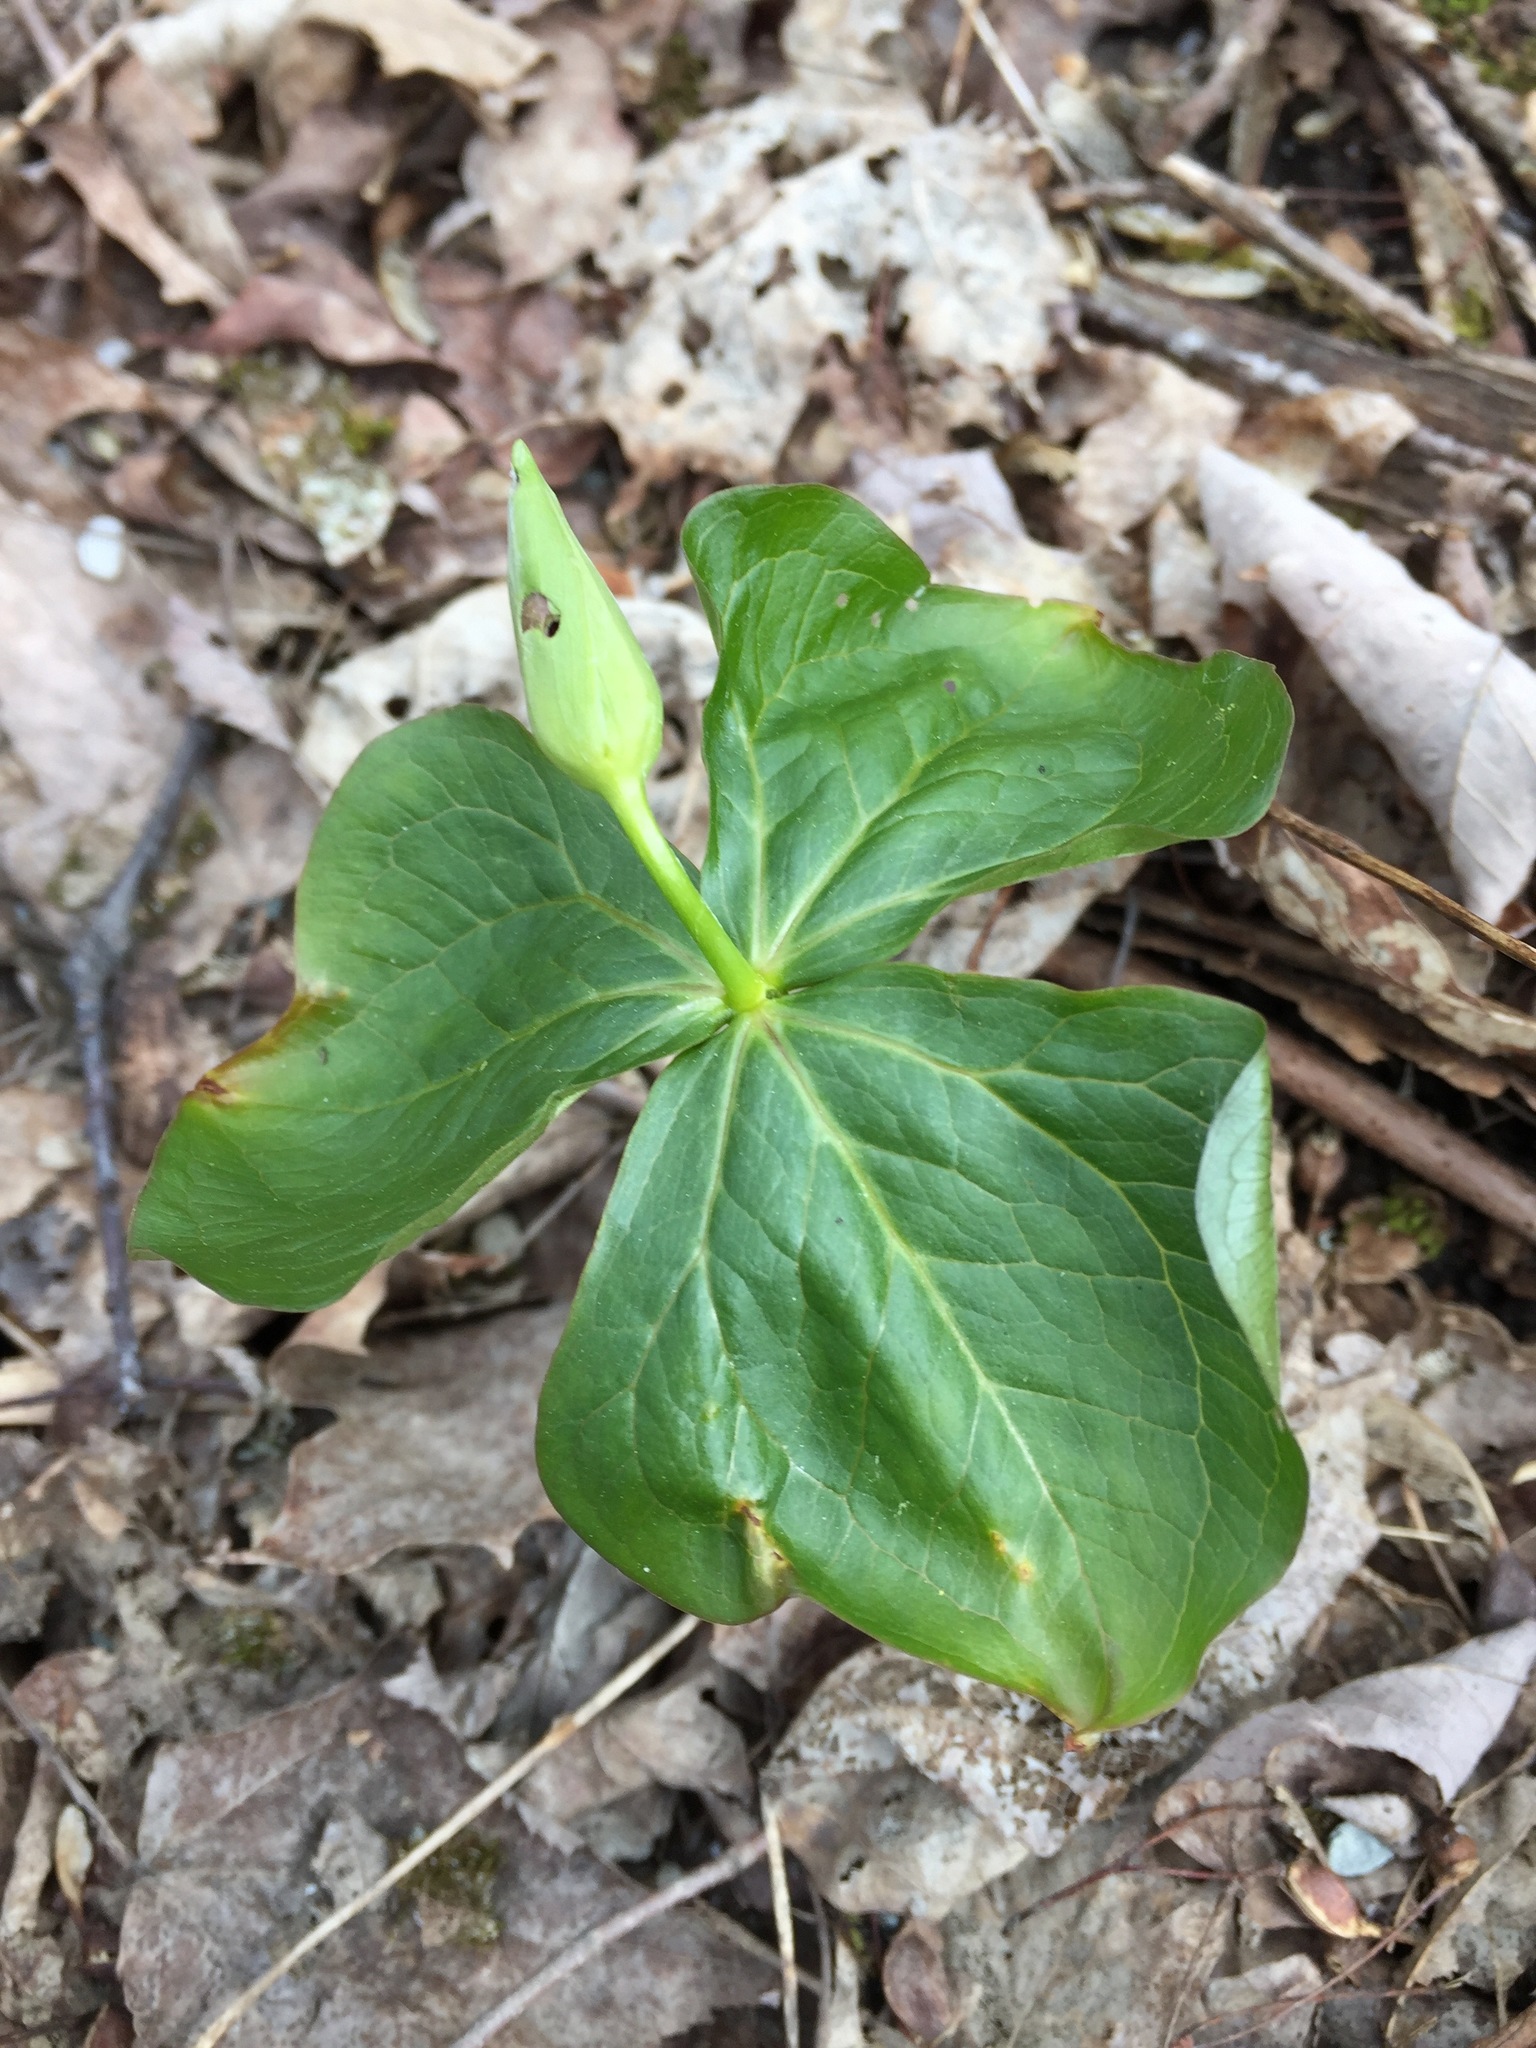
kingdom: Plantae
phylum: Tracheophyta
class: Liliopsida
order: Liliales
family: Melanthiaceae
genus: Trillium
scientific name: Trillium erectum
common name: Purple trillium
